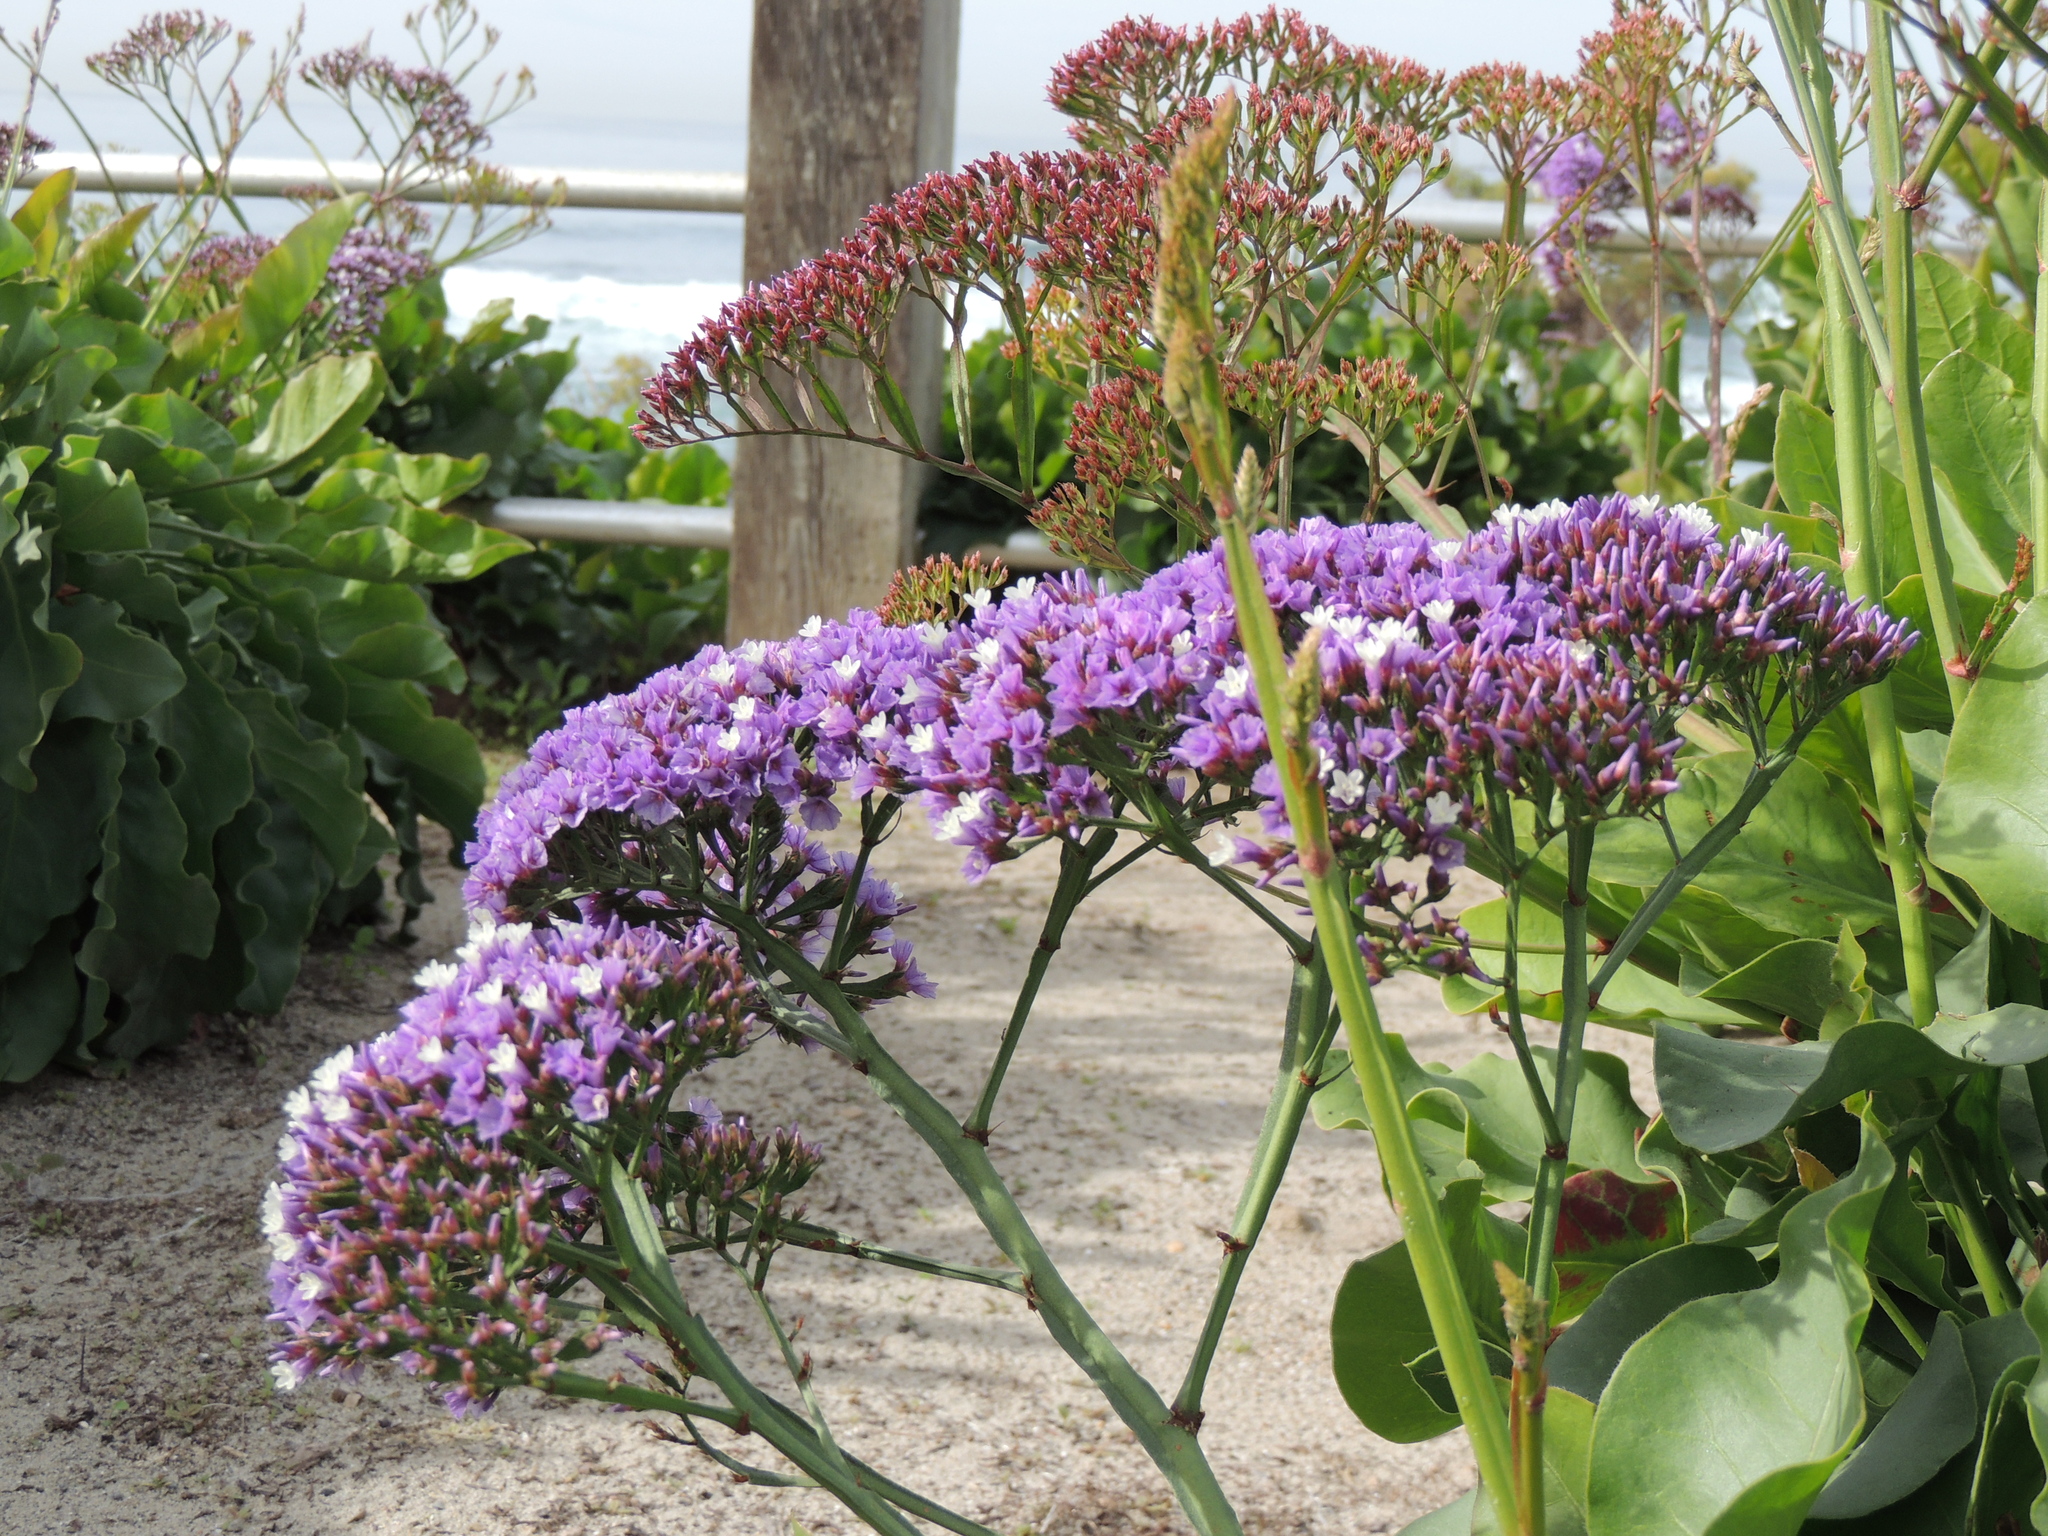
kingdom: Plantae
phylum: Tracheophyta
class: Magnoliopsida
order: Caryophyllales
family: Plumbaginaceae
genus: Limonium
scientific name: Limonium perezii
